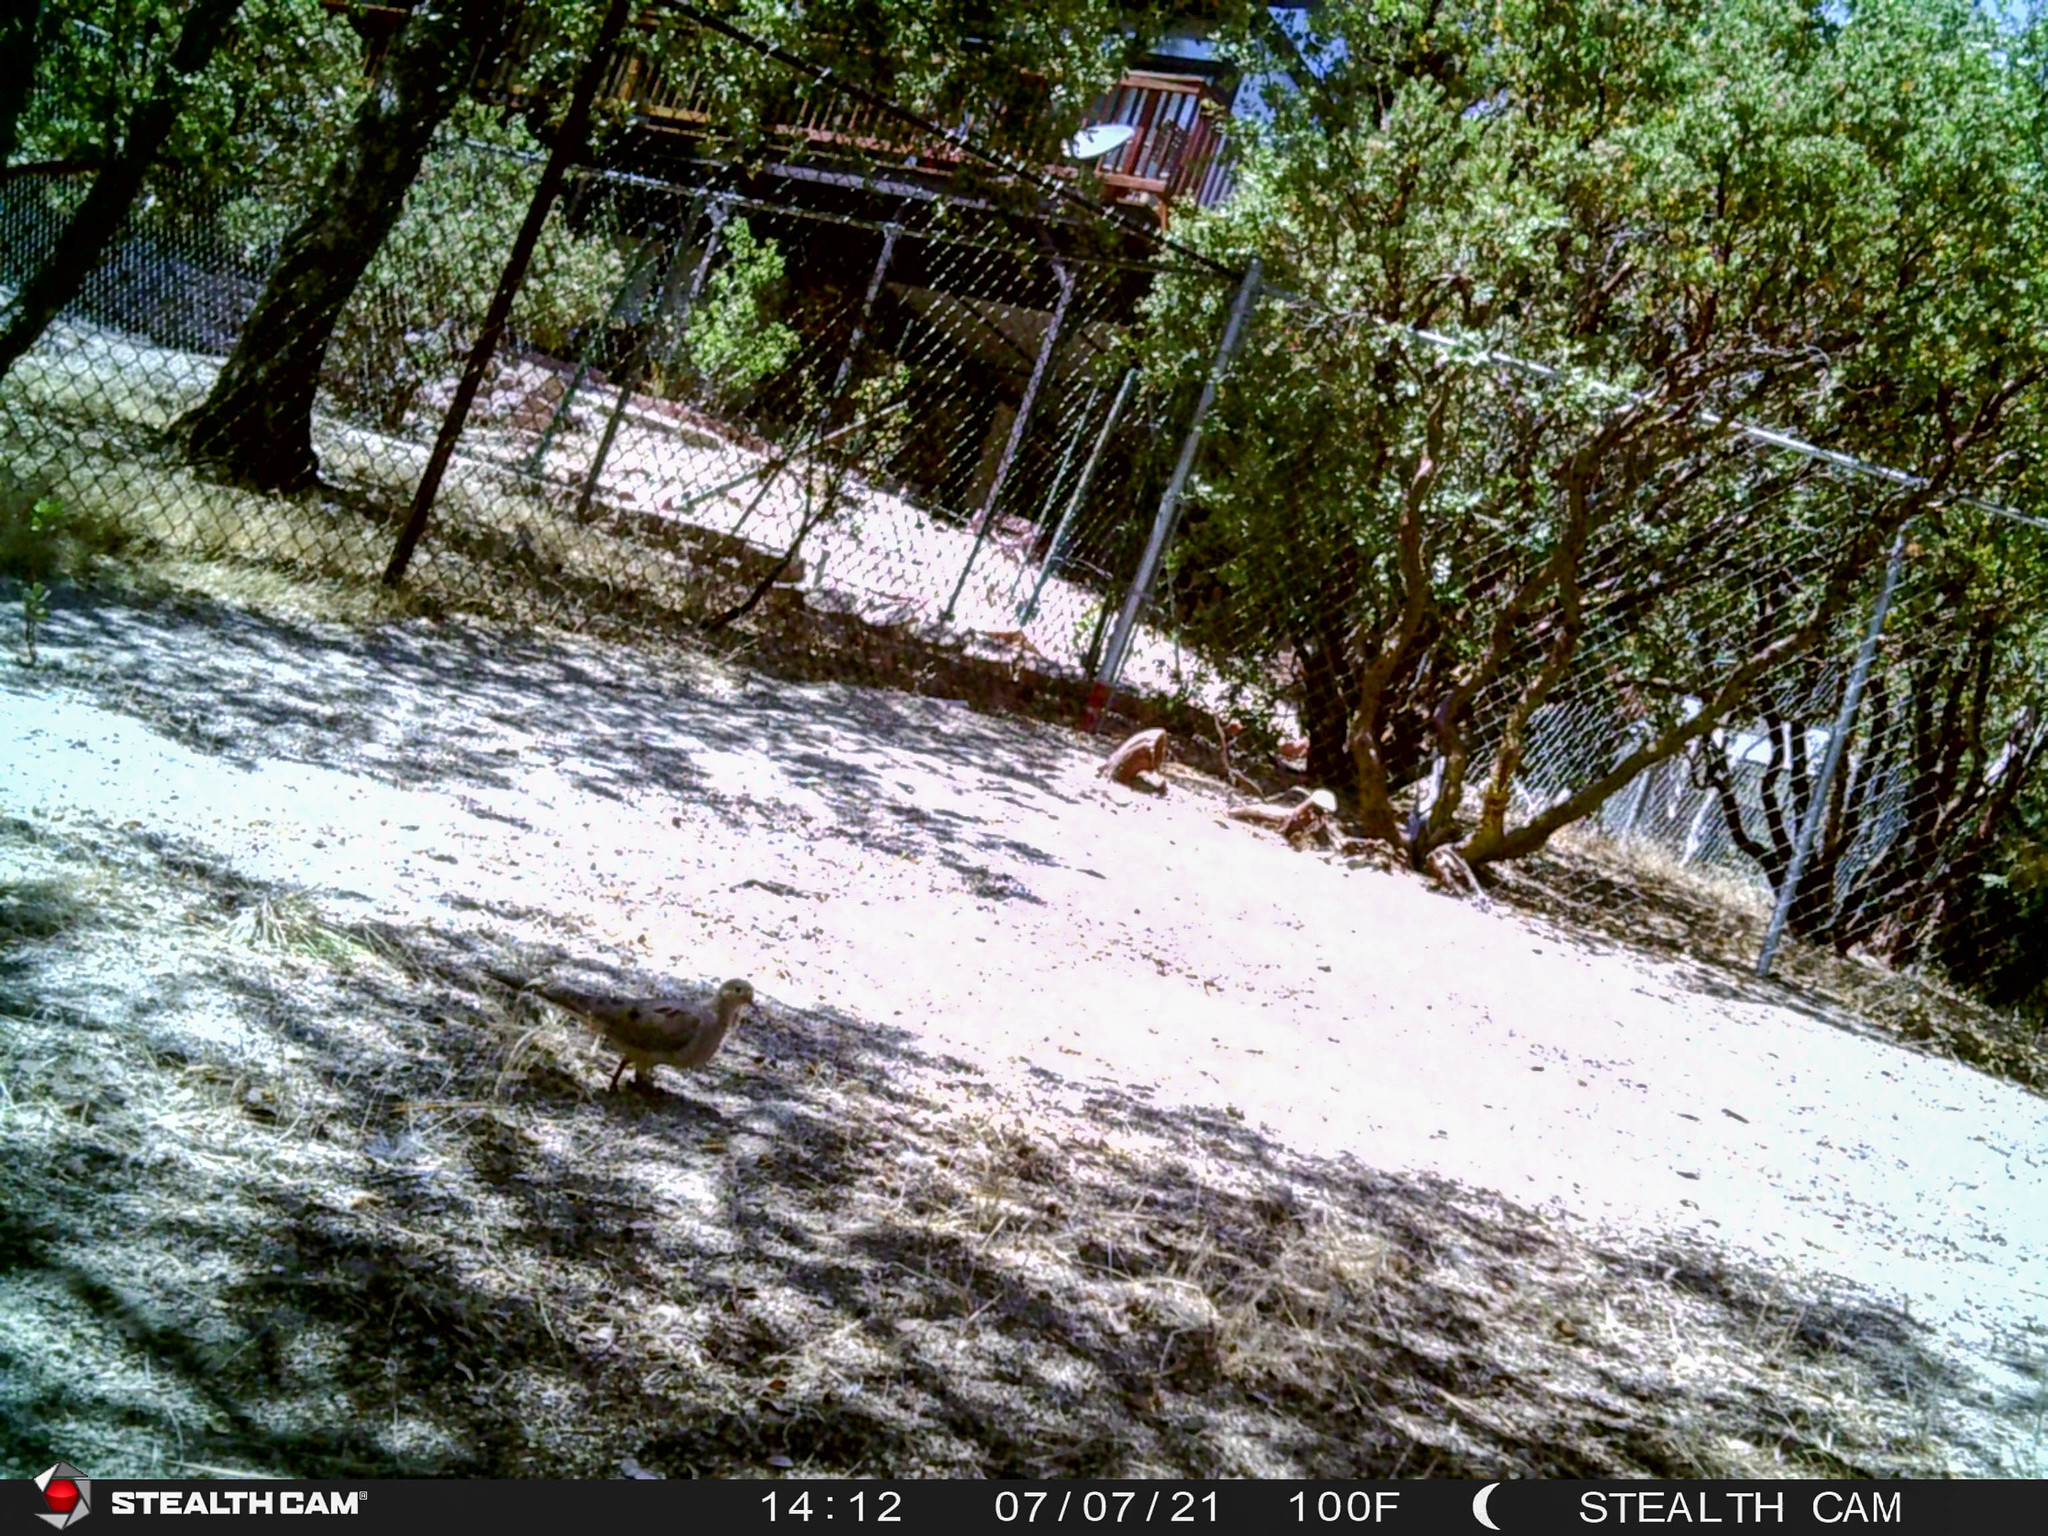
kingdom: Animalia
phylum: Chordata
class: Aves
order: Columbiformes
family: Columbidae
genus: Zenaida
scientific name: Zenaida macroura
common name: Mourning dove
